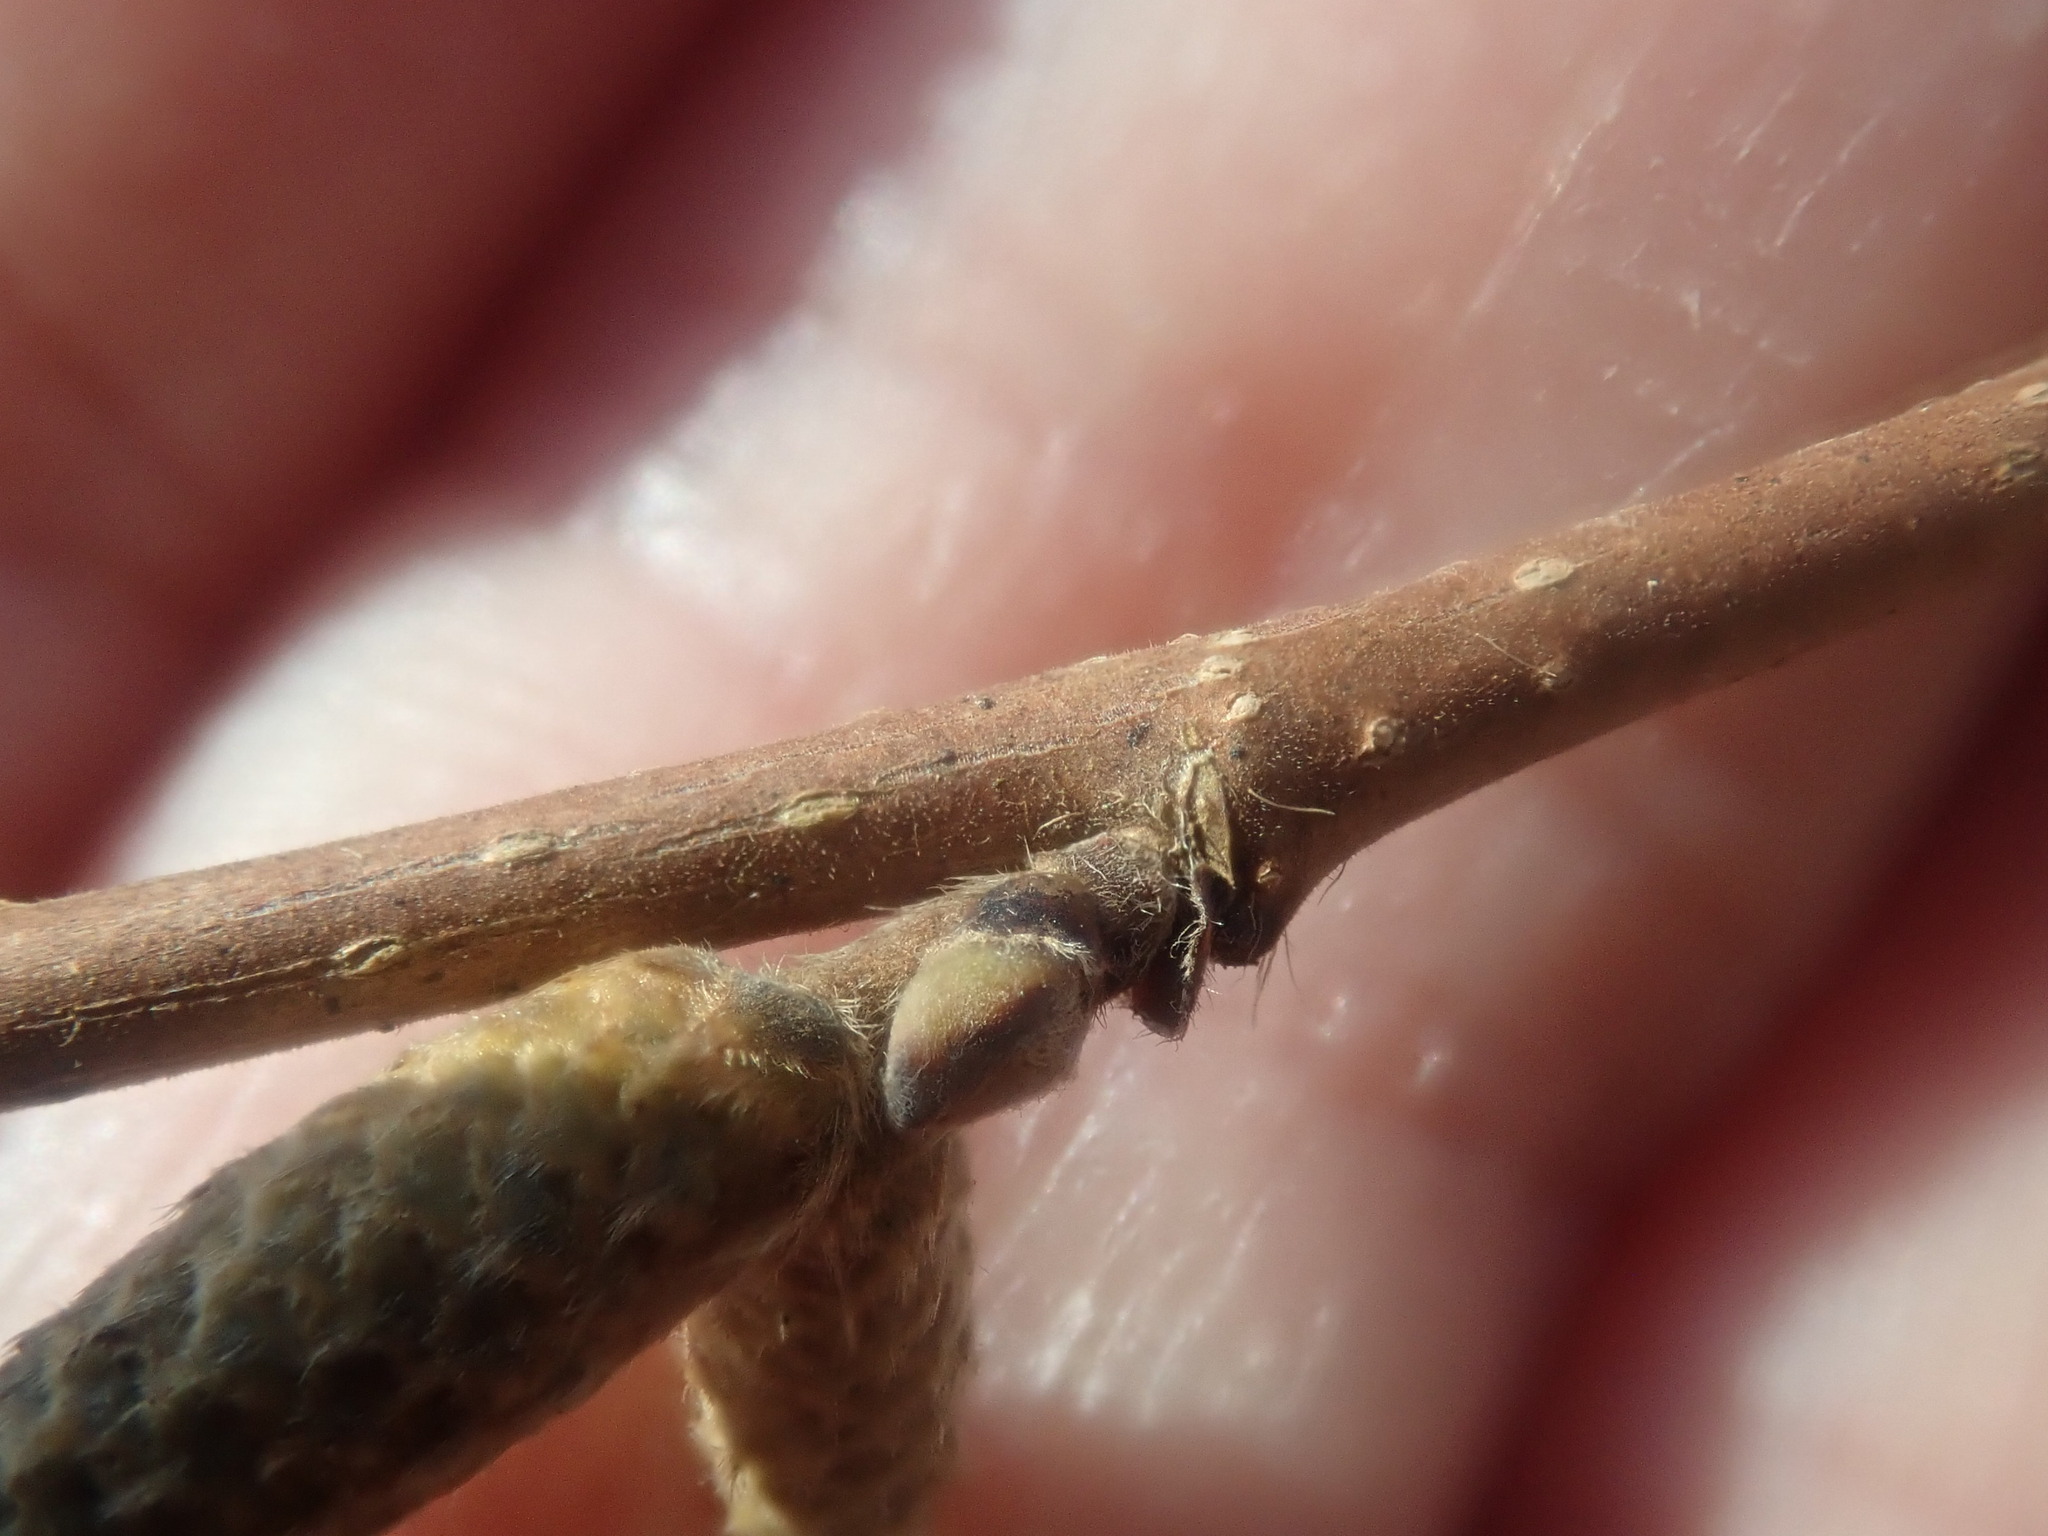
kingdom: Plantae
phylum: Tracheophyta
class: Magnoliopsida
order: Fagales
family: Betulaceae
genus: Corylus
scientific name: Corylus cornuta
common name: Beaked hazel
